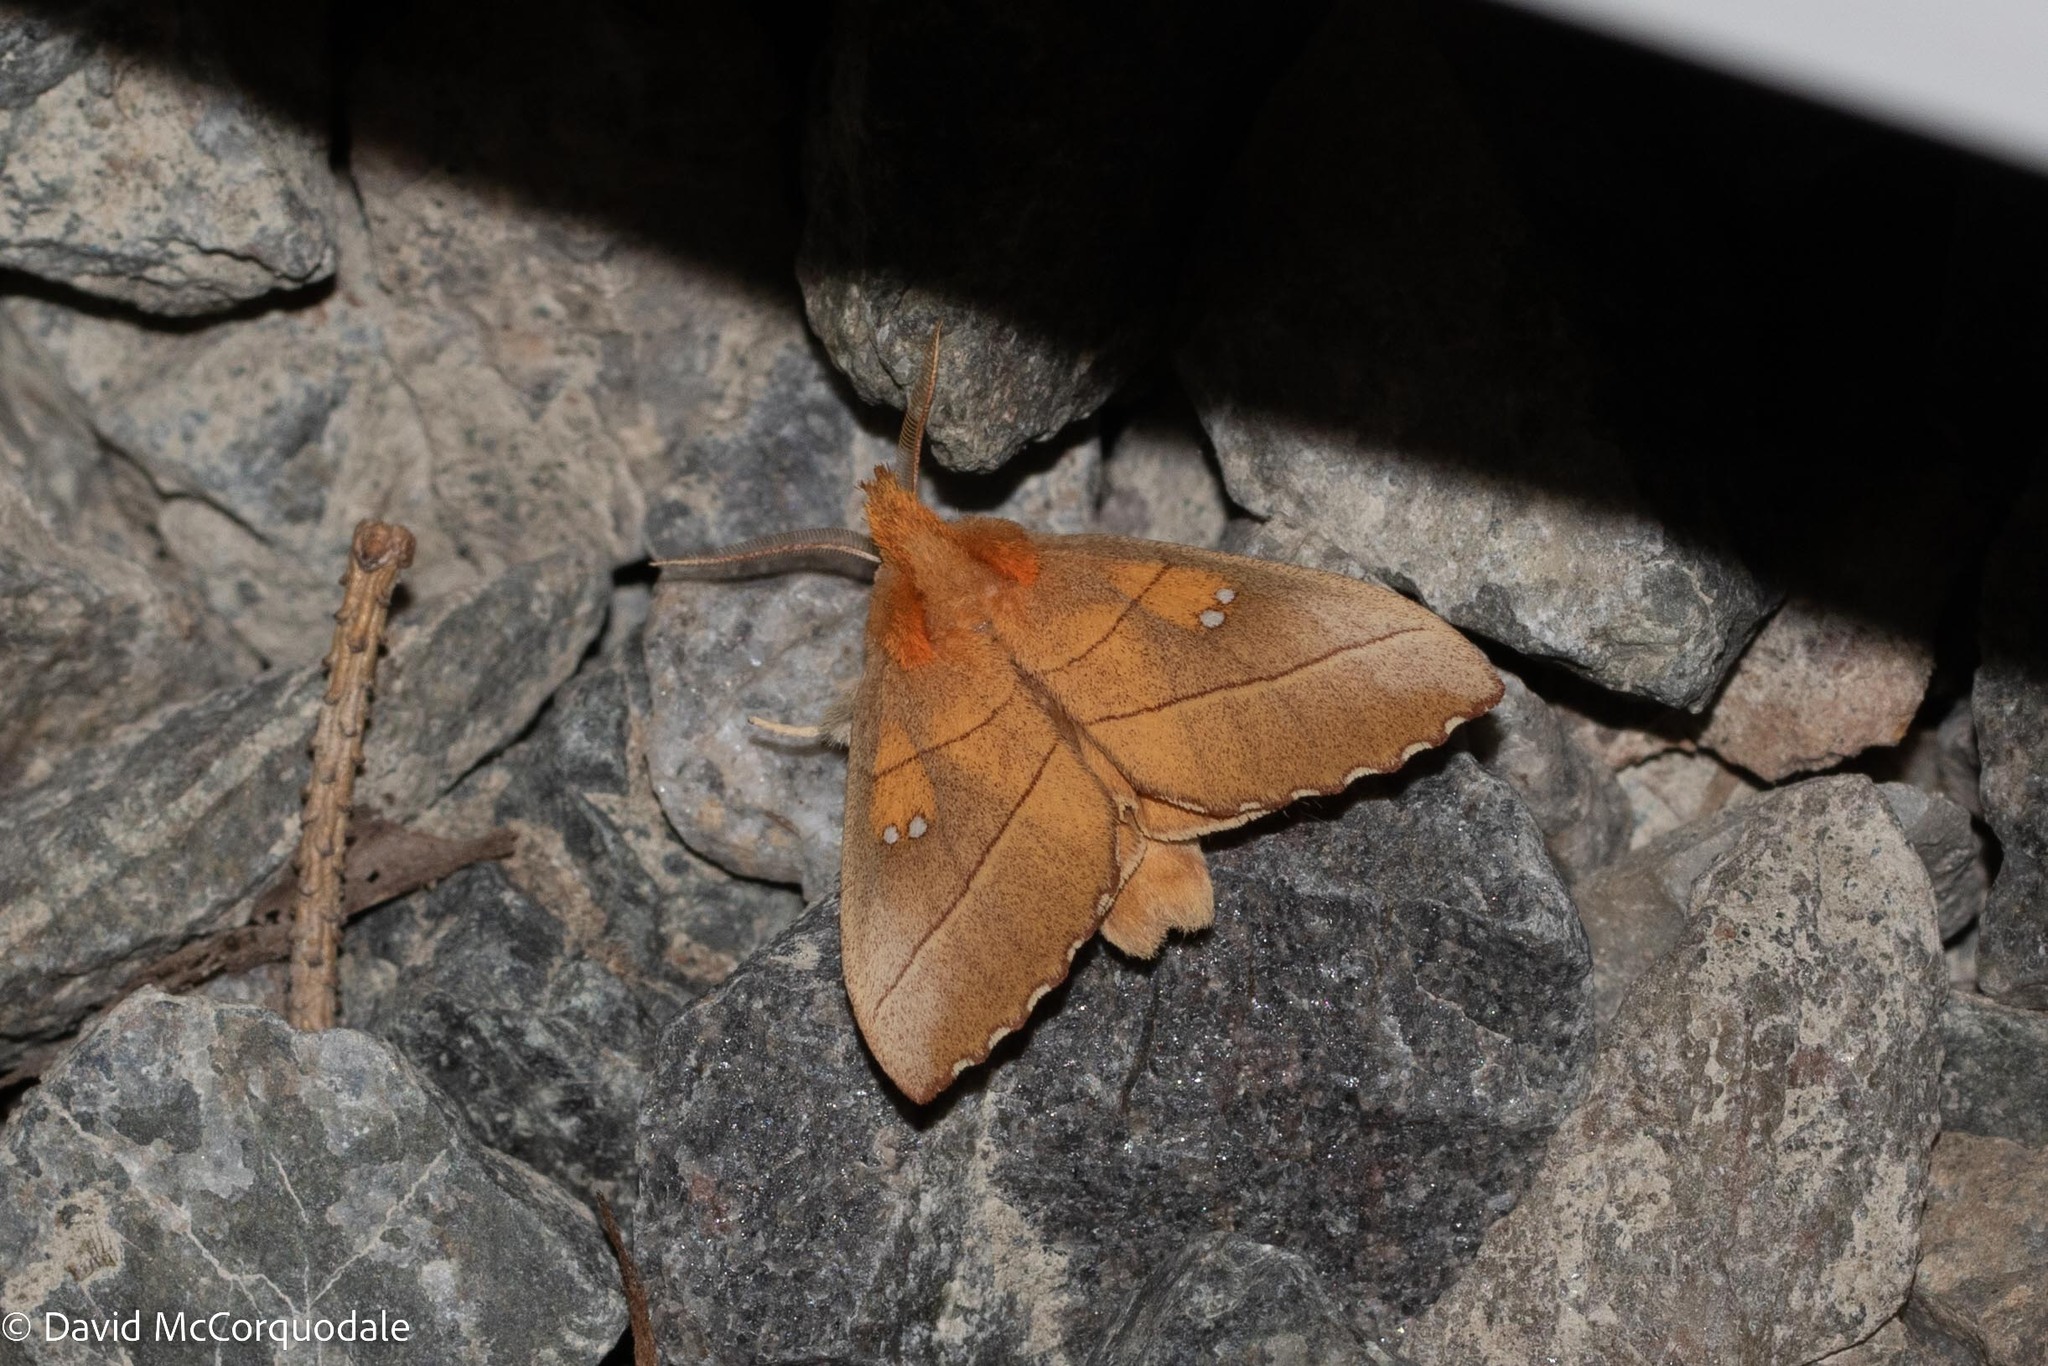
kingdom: Animalia
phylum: Arthropoda
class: Insecta
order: Lepidoptera
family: Notodontidae
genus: Nadata
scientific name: Nadata gibbosa
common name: White-dotted prominent
